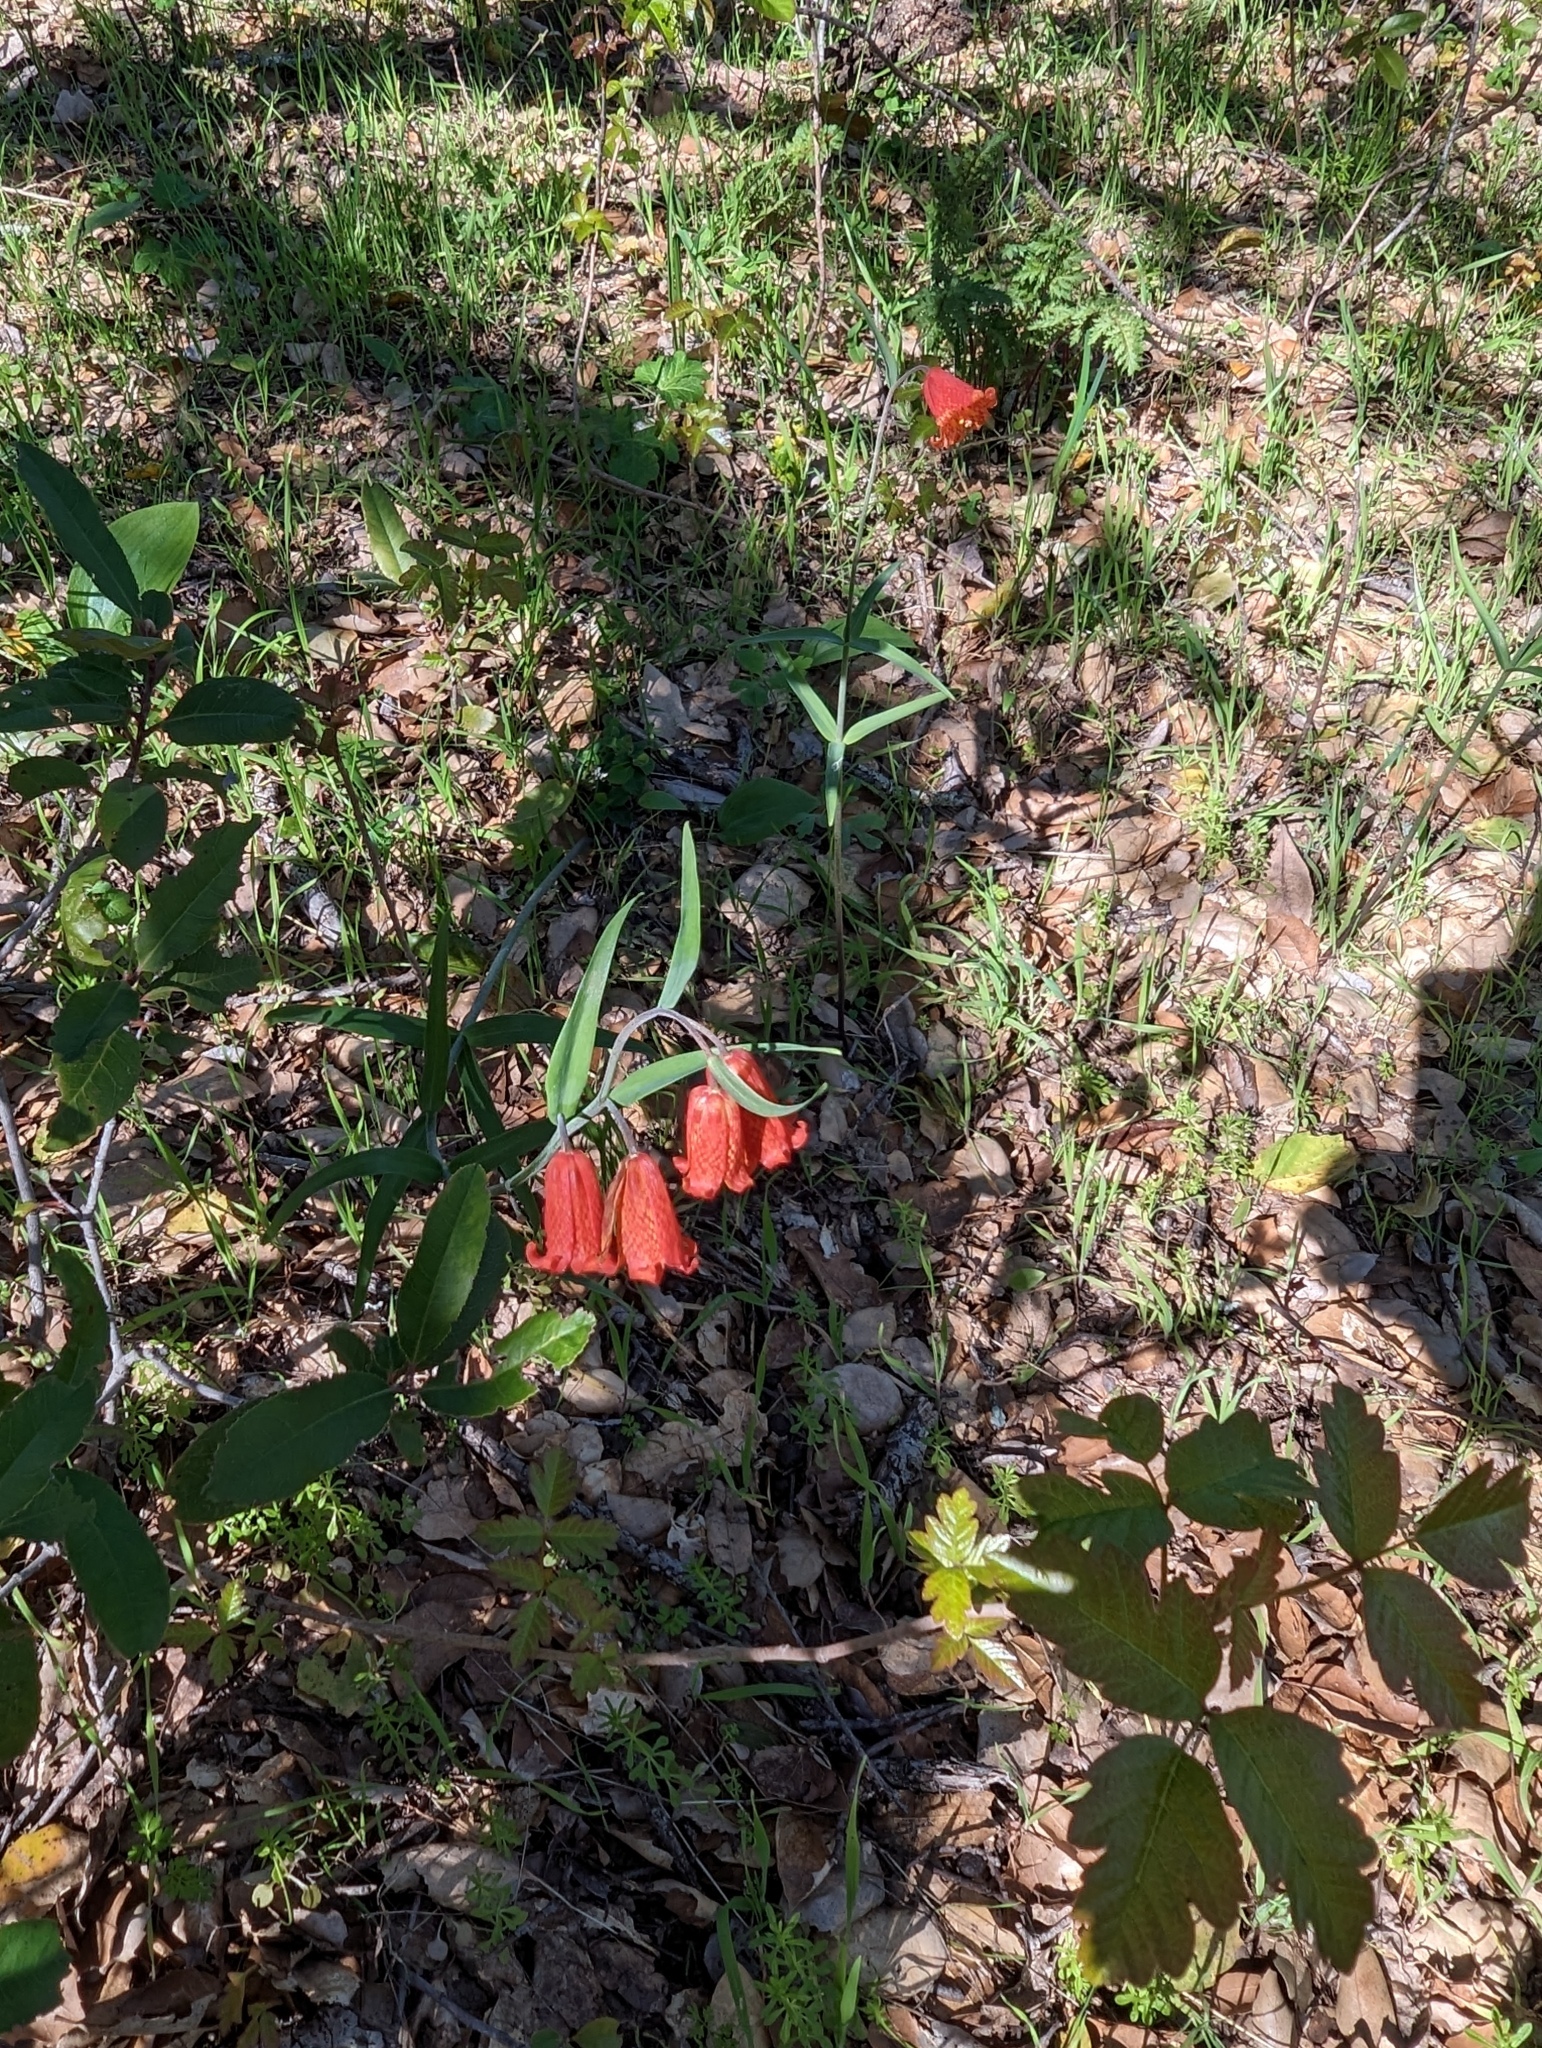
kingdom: Plantae
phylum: Tracheophyta
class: Liliopsida
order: Liliales
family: Liliaceae
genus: Fritillaria
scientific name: Fritillaria recurva
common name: Scarlet fritillary
